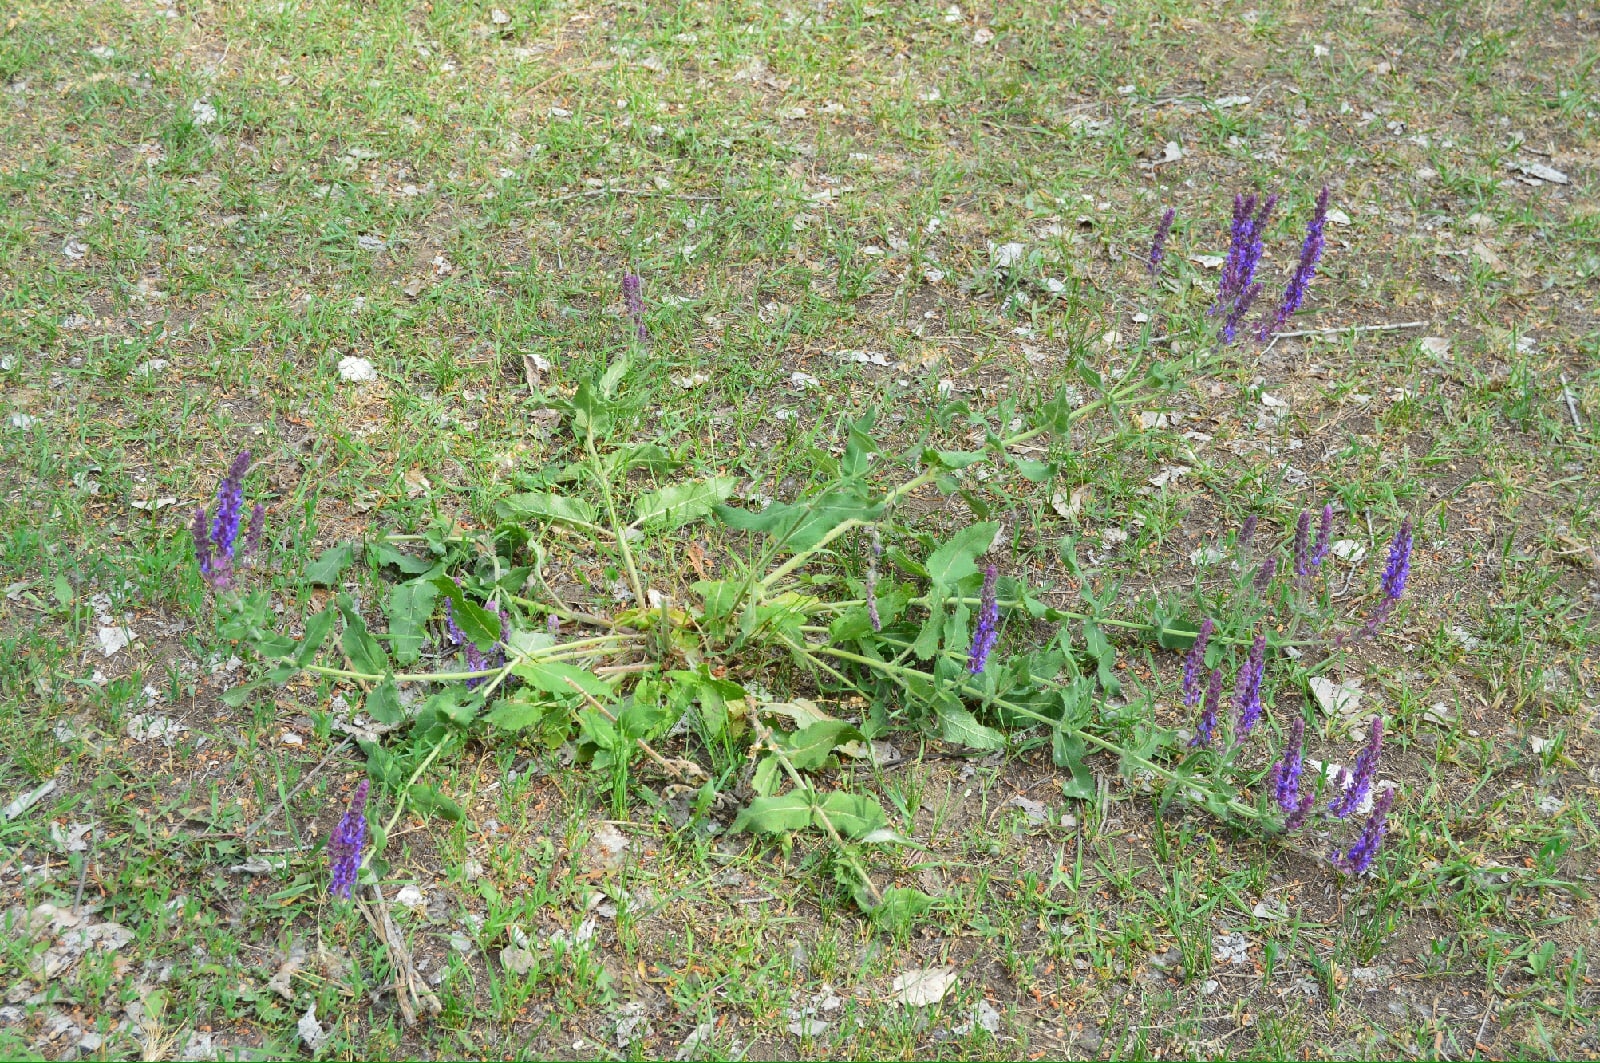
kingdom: Plantae
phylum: Tracheophyta
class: Magnoliopsida
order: Lamiales
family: Lamiaceae
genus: Salvia
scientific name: Salvia nemorosa
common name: Balkan clary
